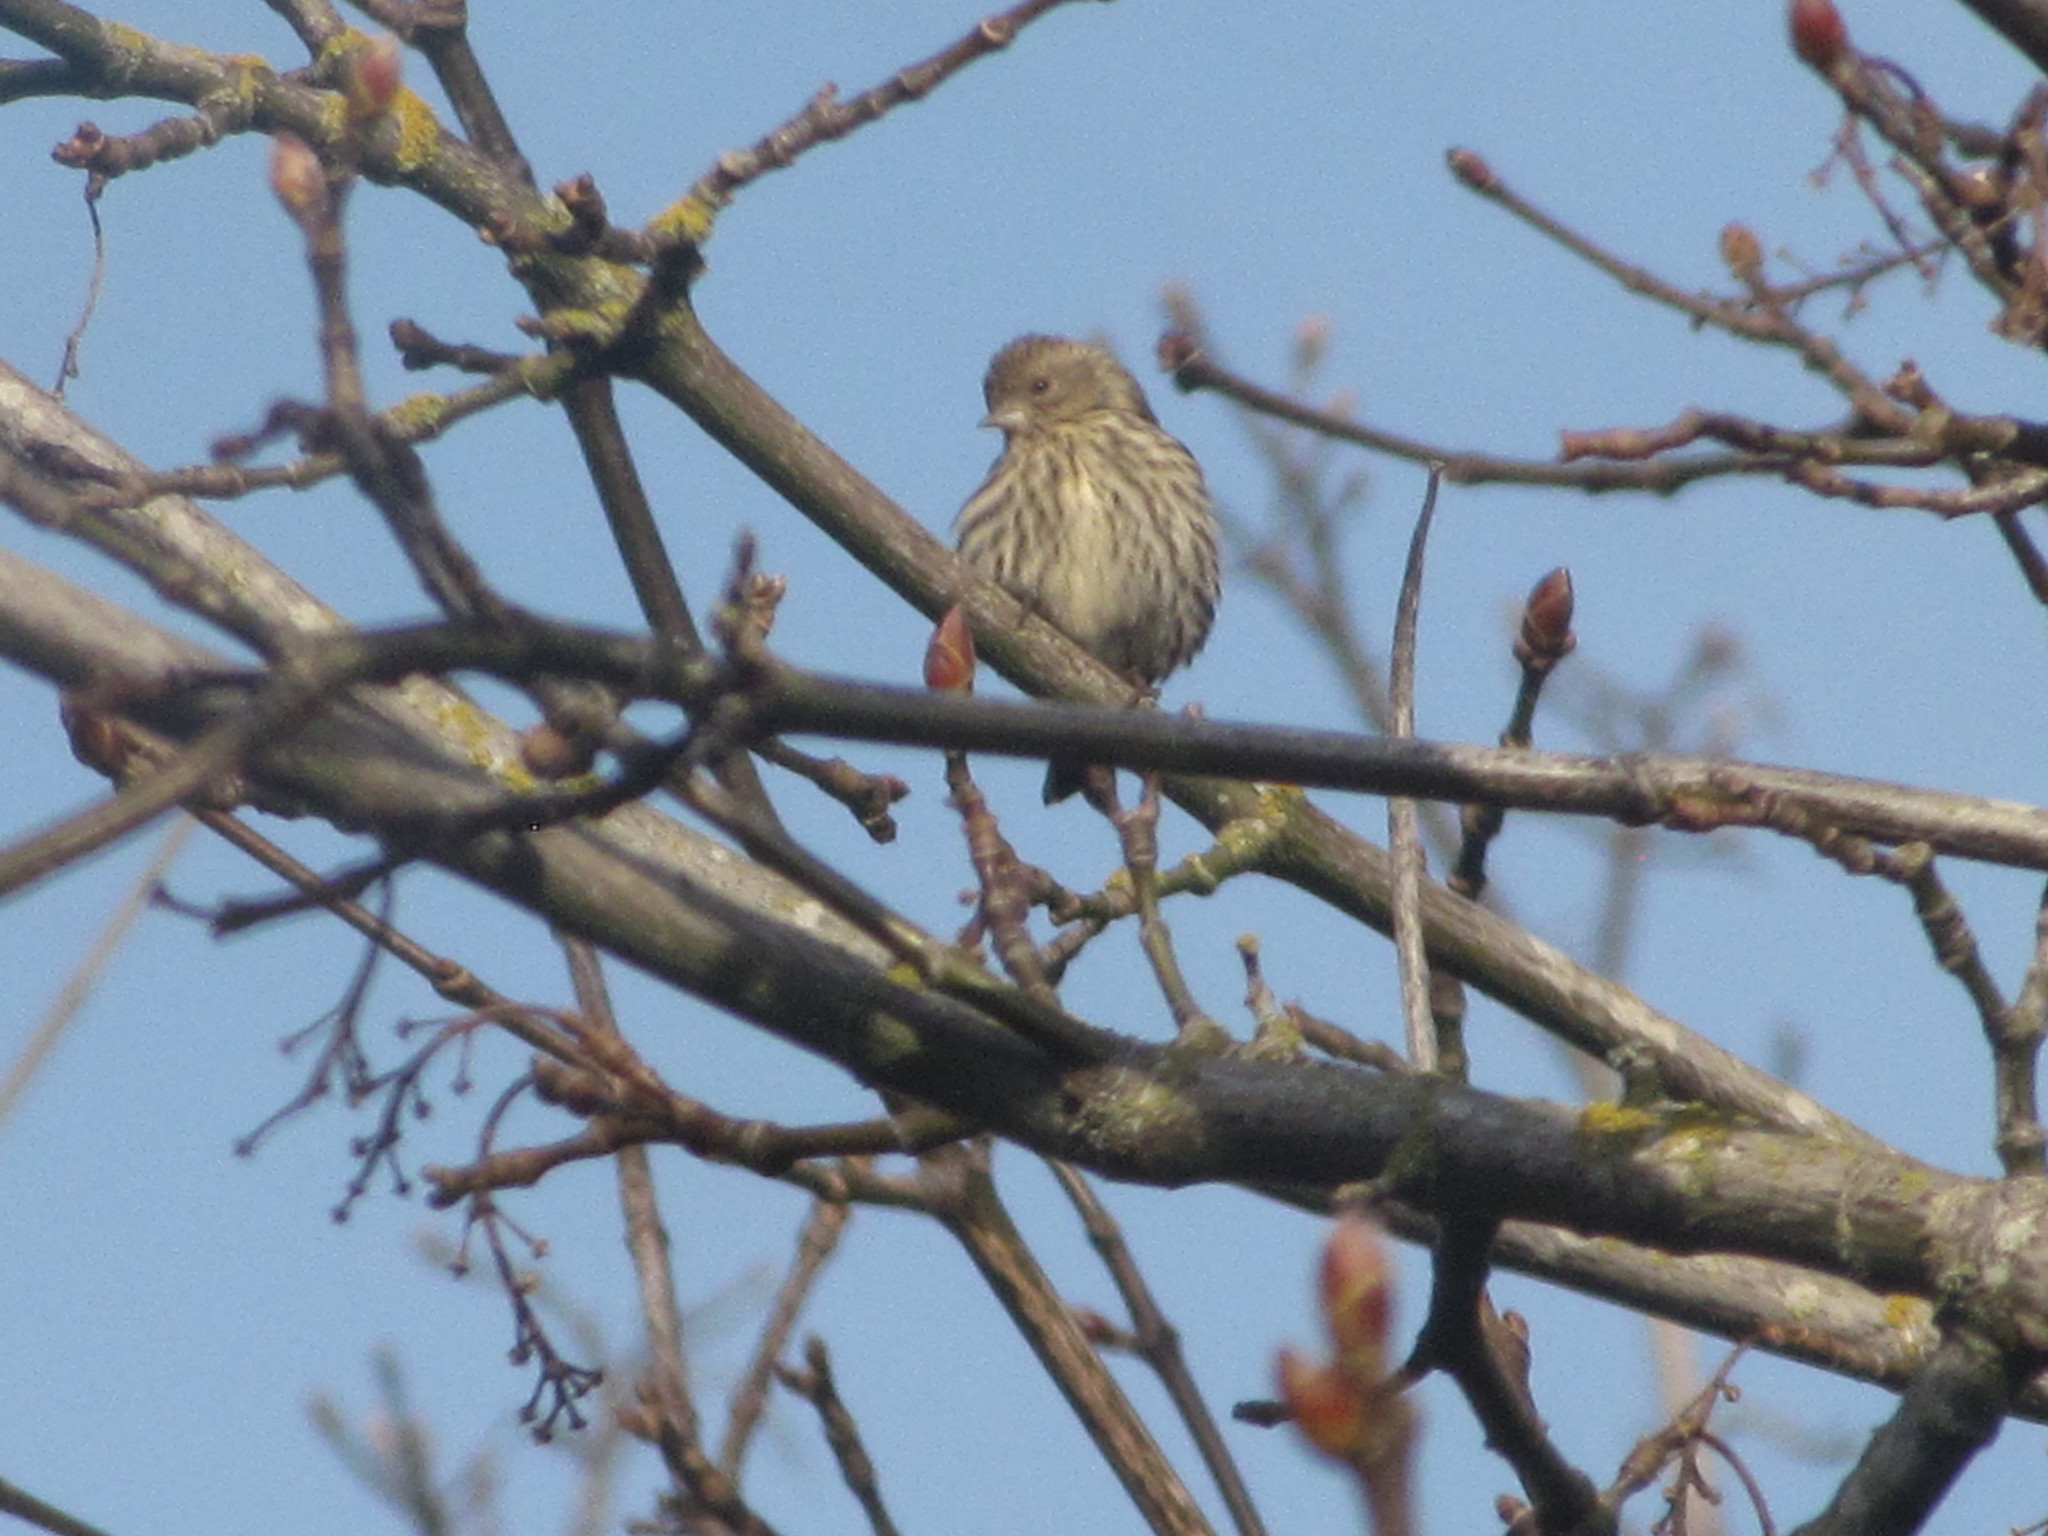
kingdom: Animalia
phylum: Chordata
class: Aves
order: Passeriformes
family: Fringillidae
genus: Spinus
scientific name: Spinus pinus
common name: Pine siskin
